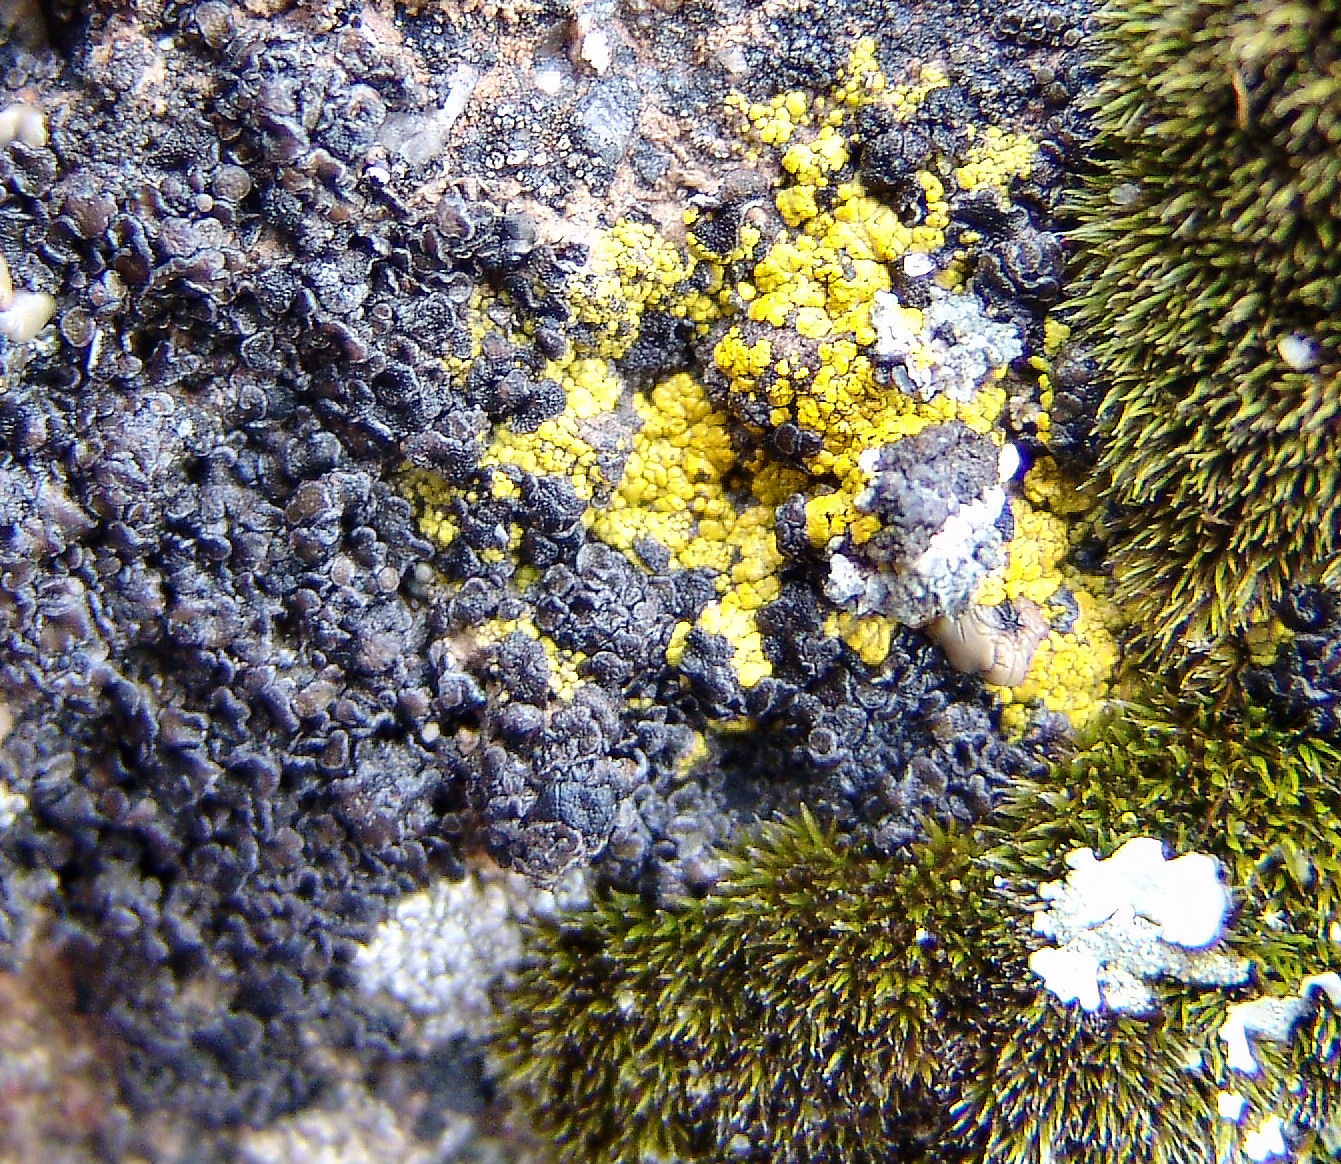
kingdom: Fungi
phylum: Ascomycota
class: Lecanoromycetes
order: Lecanorales
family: Lecanoraceae
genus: Miriquidica
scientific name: Miriquidica scotopholis
